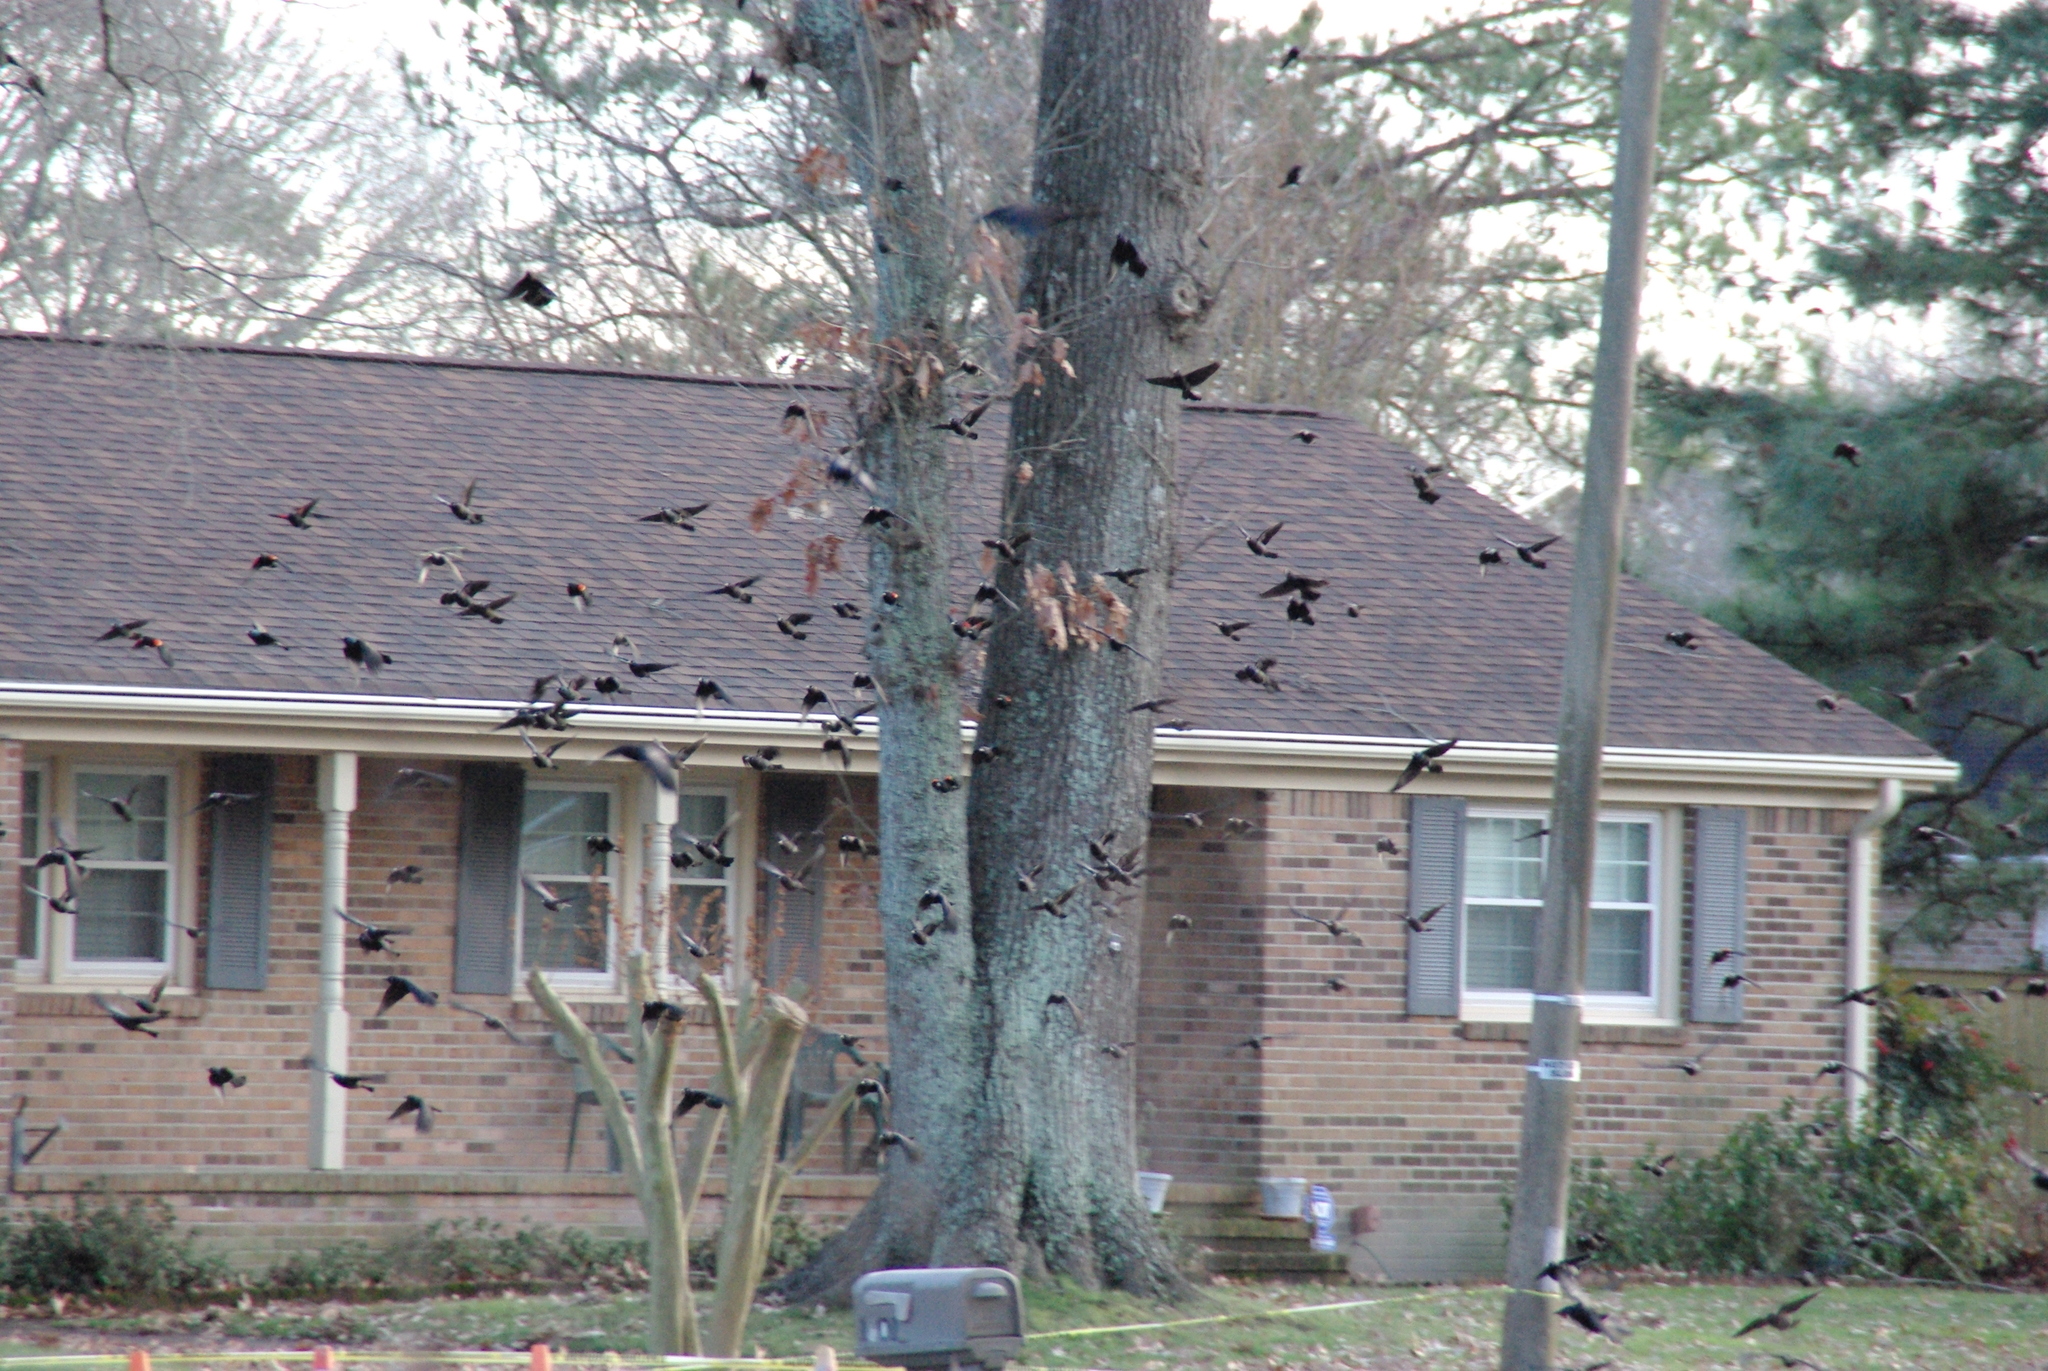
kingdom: Animalia
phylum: Chordata
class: Aves
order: Passeriformes
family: Icteridae
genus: Agelaius
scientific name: Agelaius phoeniceus
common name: Red-winged blackbird
